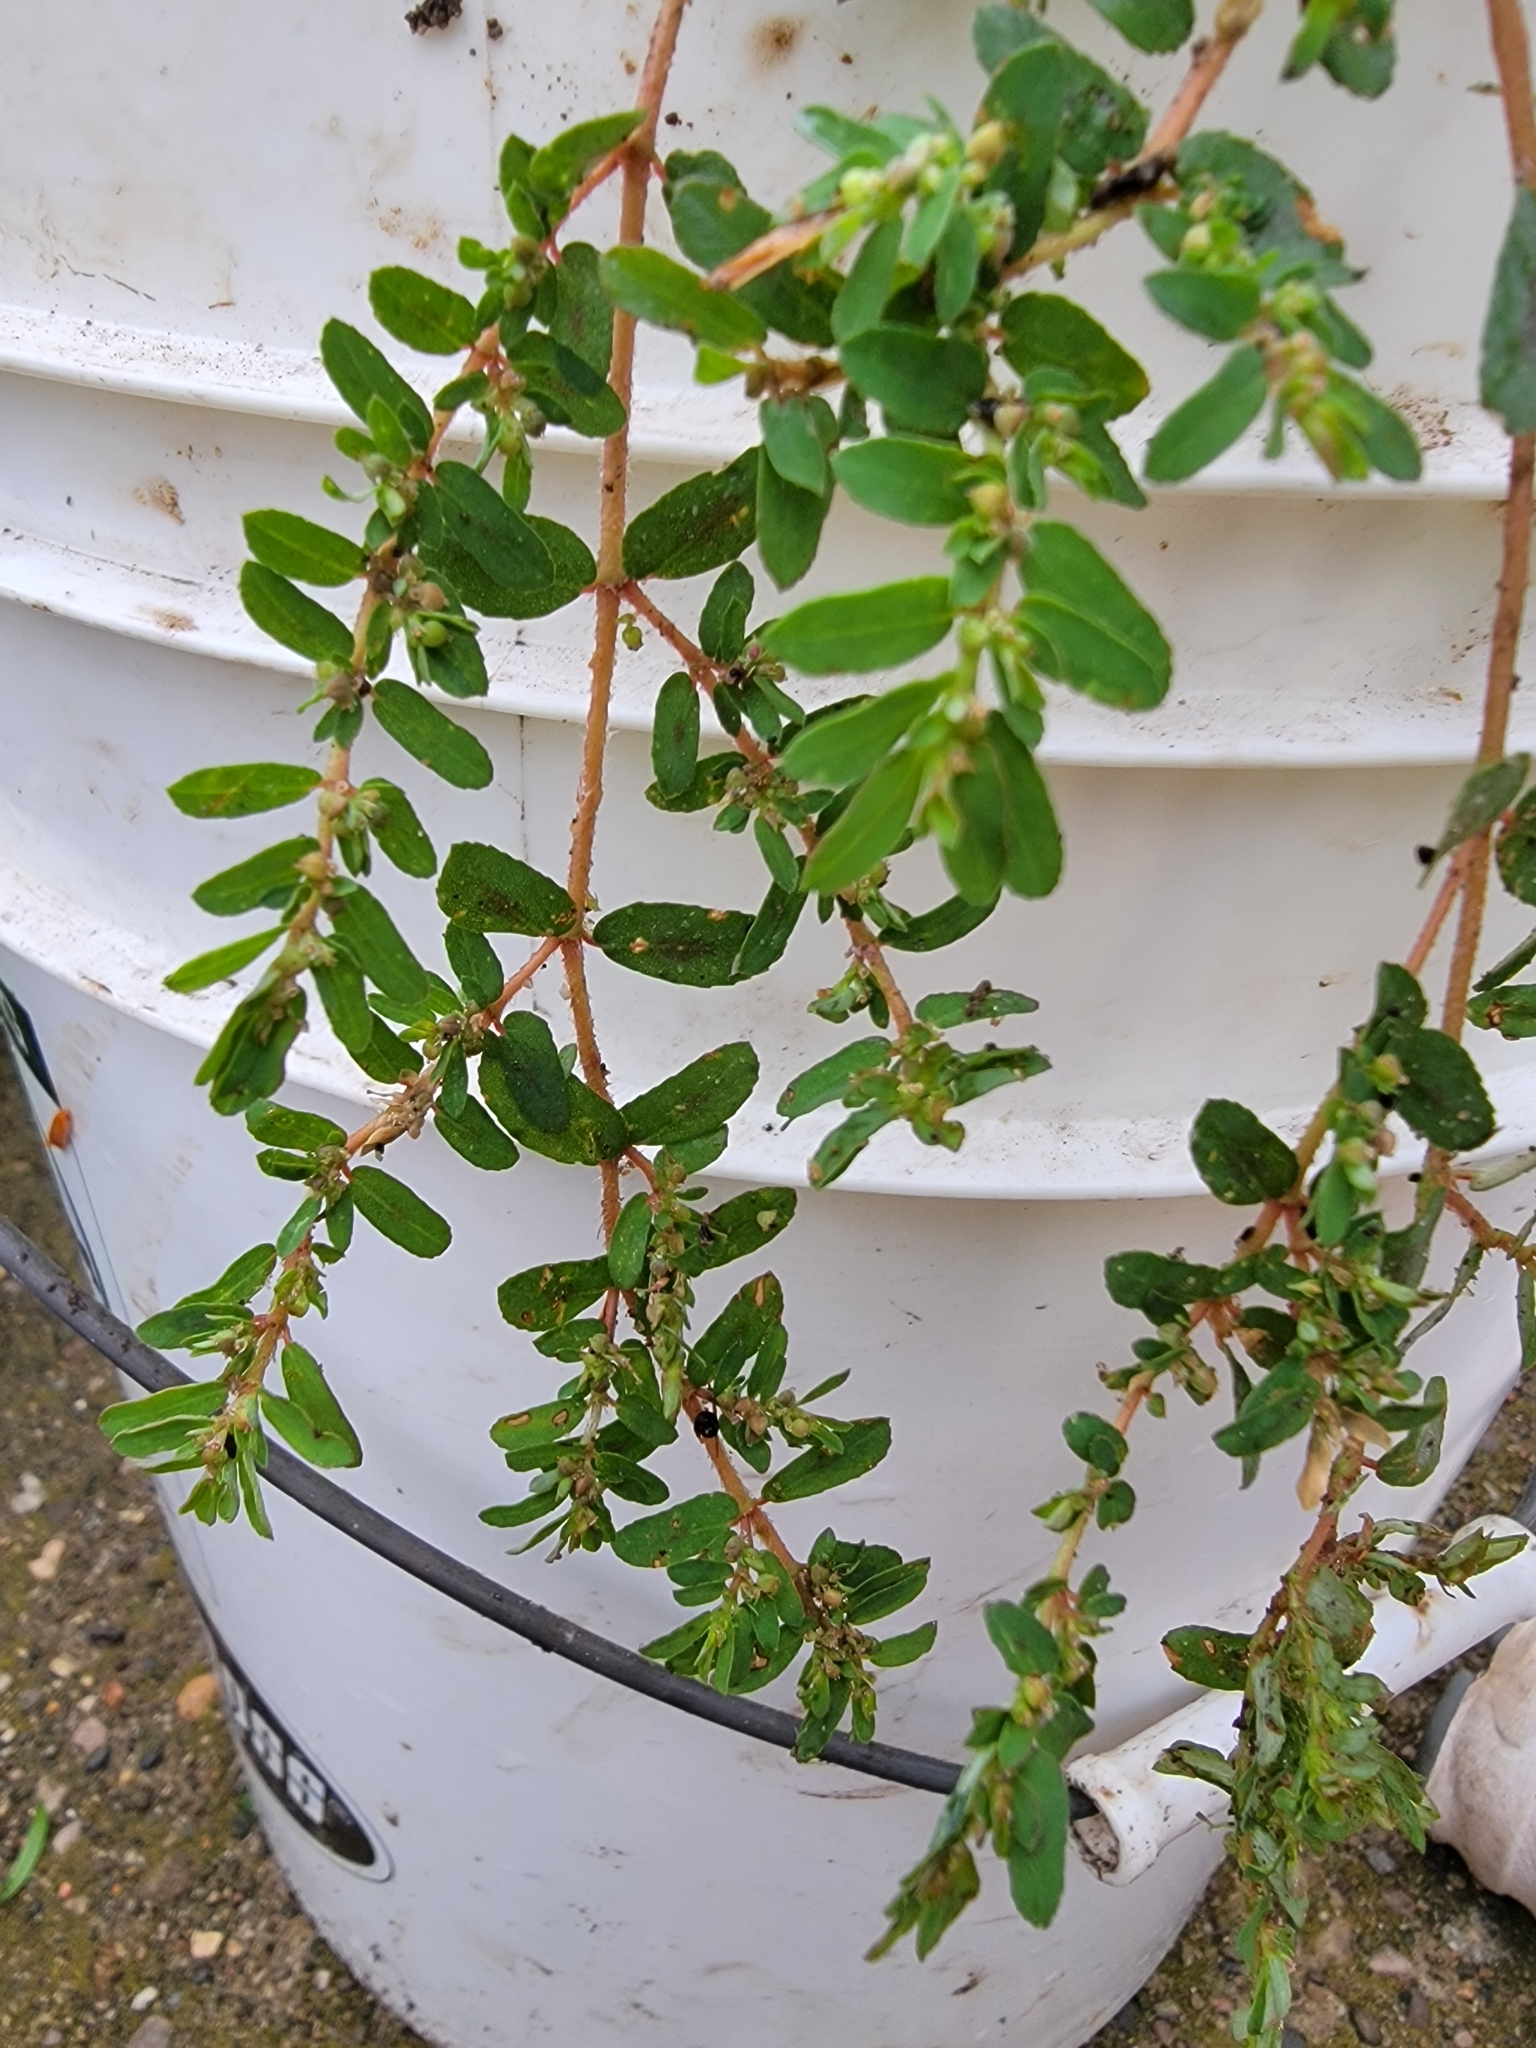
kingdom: Plantae
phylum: Tracheophyta
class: Magnoliopsida
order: Malpighiales
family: Euphorbiaceae
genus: Euphorbia
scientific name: Euphorbia maculata
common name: Spotted spurge
